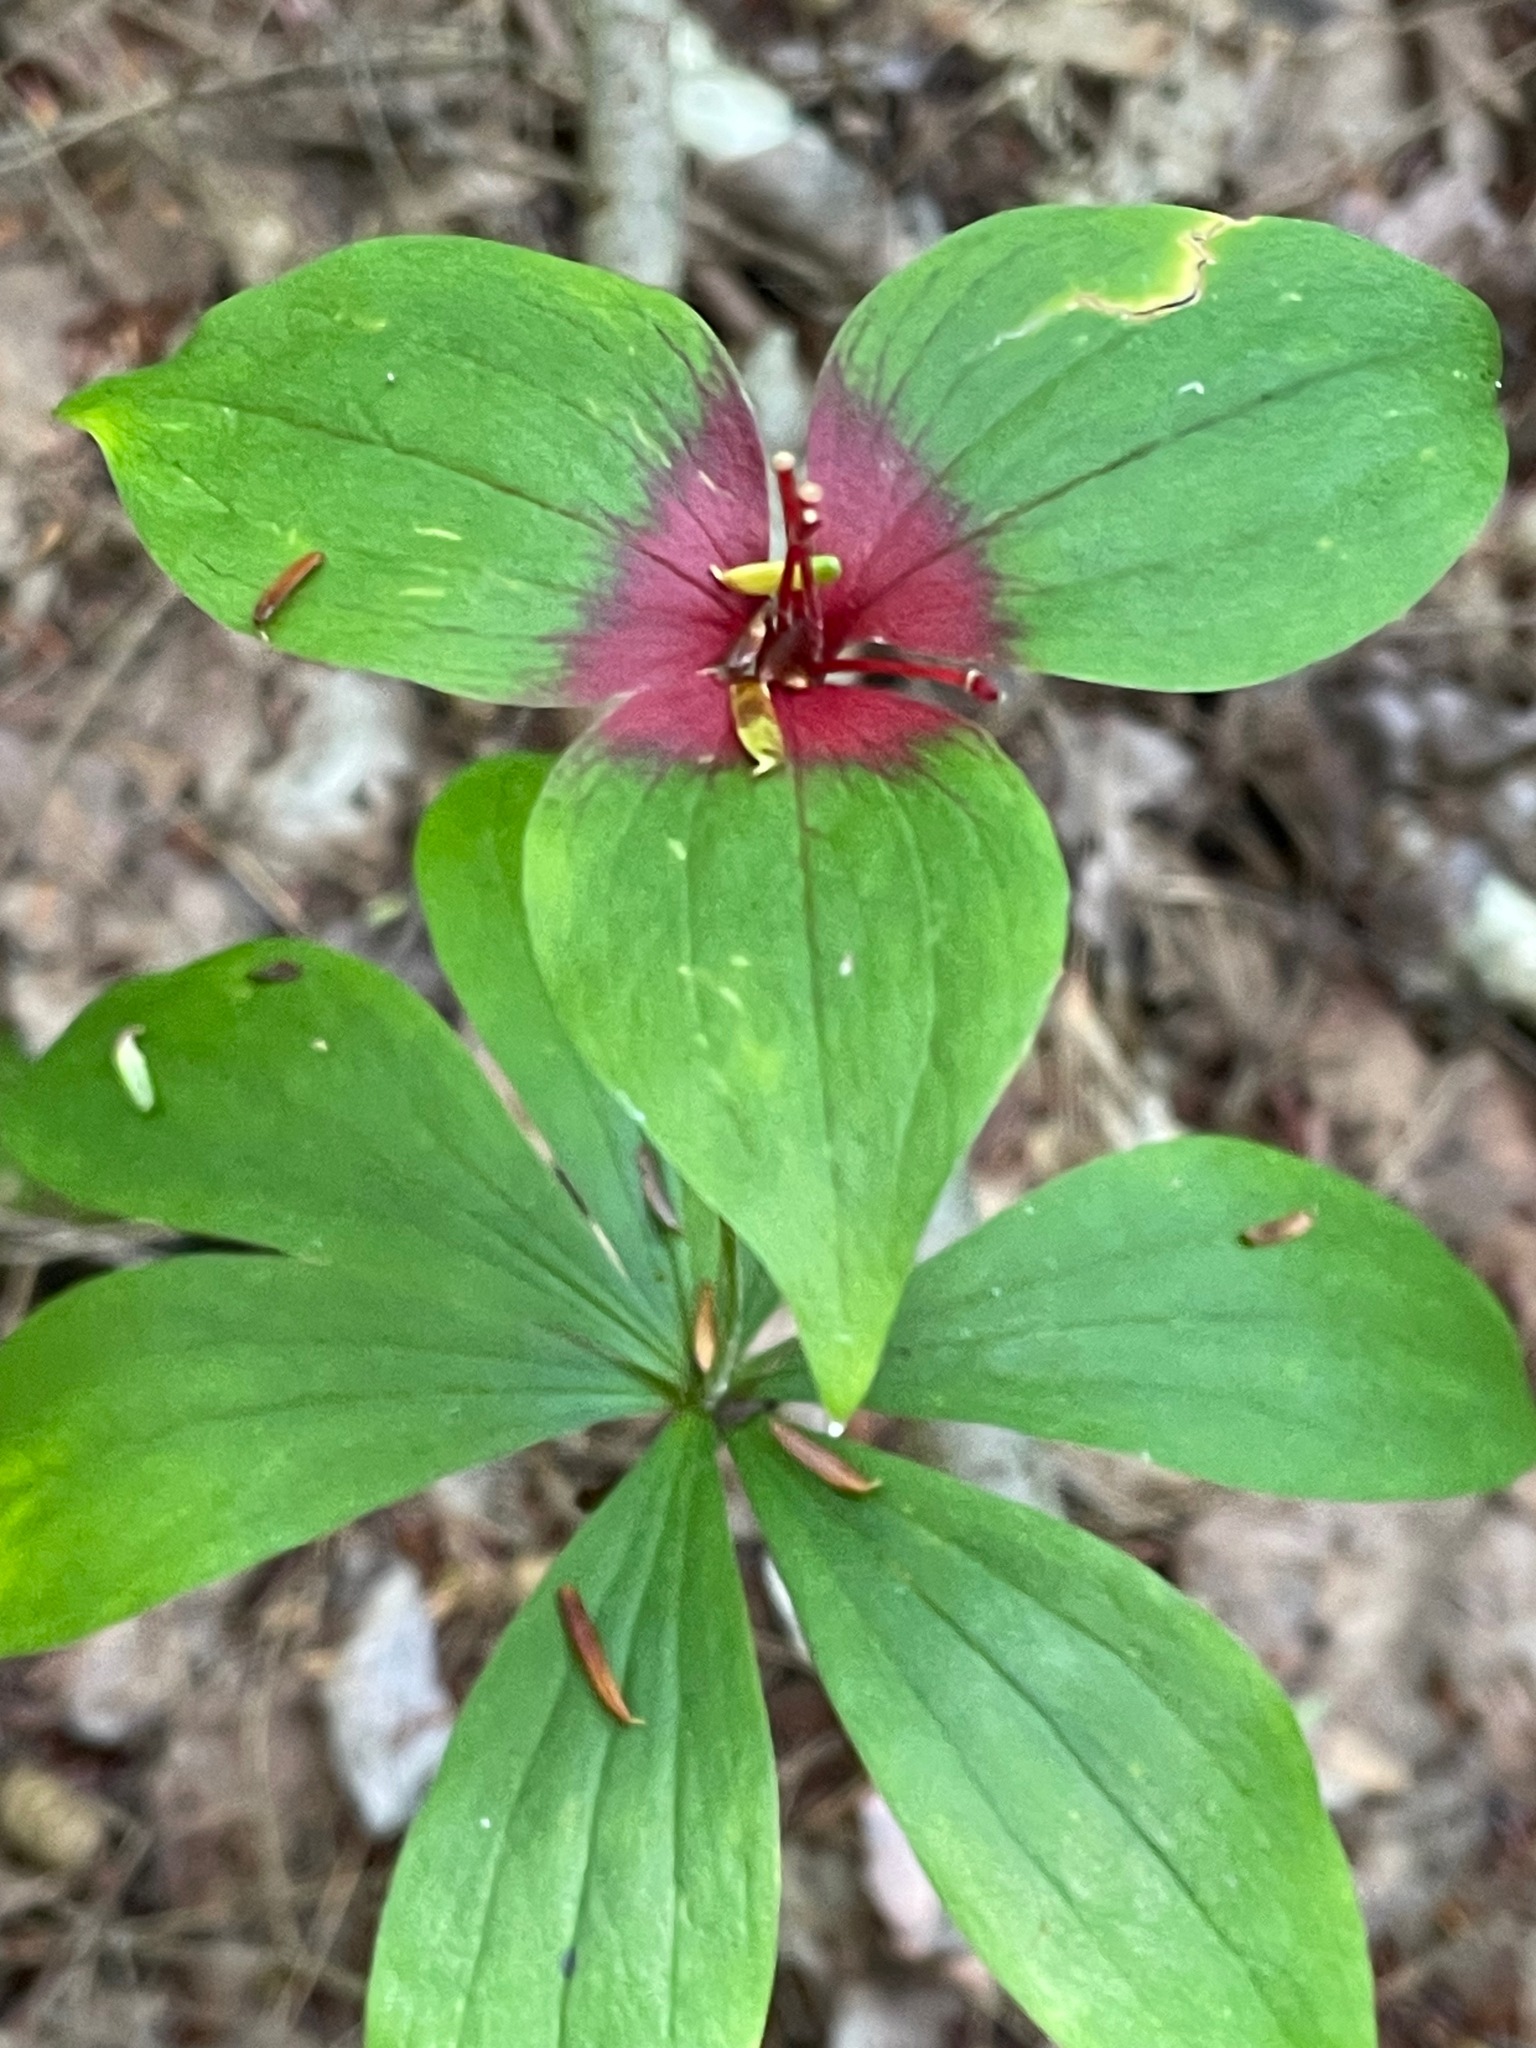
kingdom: Plantae
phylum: Tracheophyta
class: Liliopsida
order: Liliales
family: Liliaceae
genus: Medeola
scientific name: Medeola virginiana
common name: Indian cucumber-root
